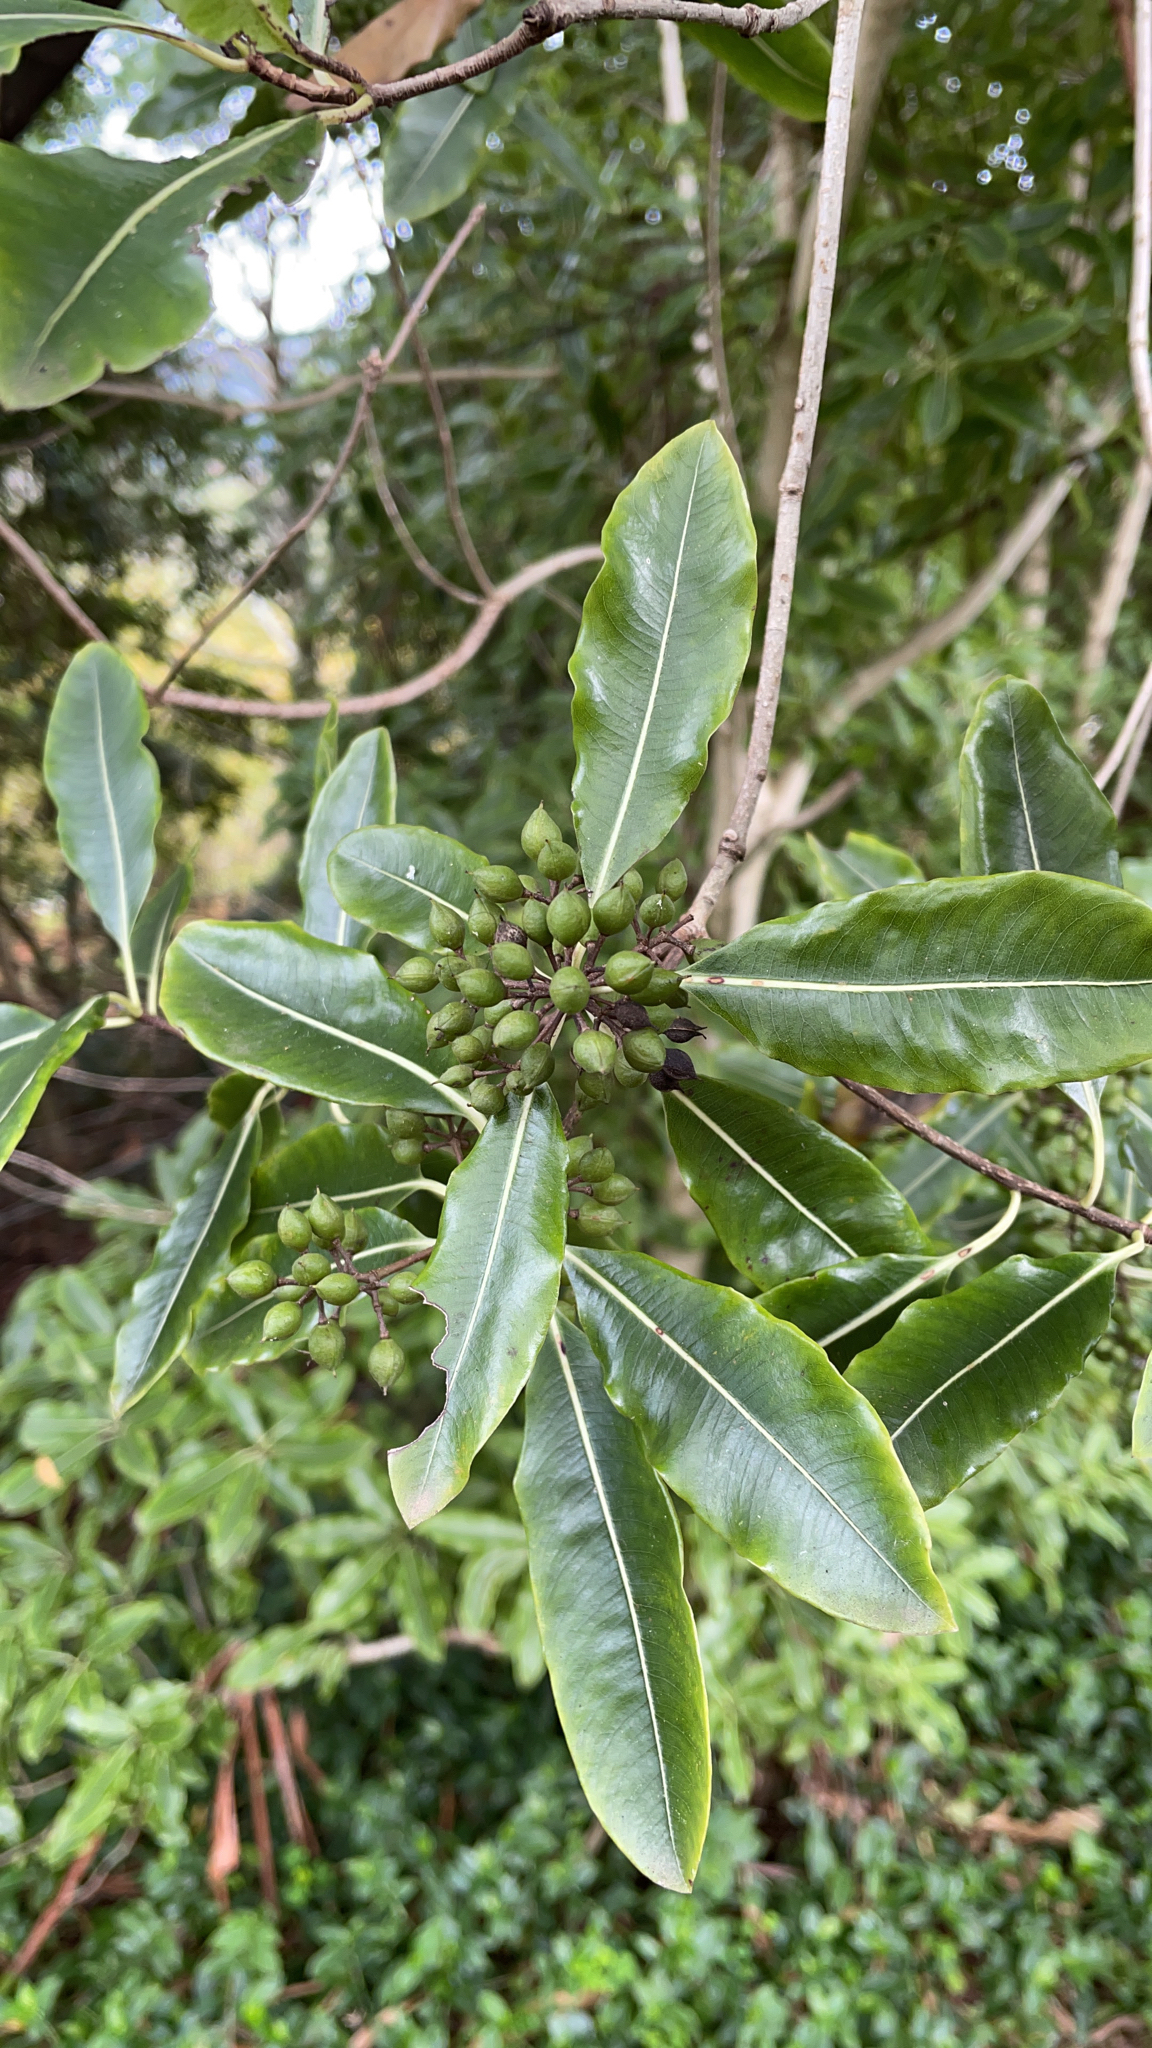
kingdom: Plantae
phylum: Tracheophyta
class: Magnoliopsida
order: Apiales
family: Pittosporaceae
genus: Pittosporum
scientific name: Pittosporum eugenioides
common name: Lemonwood
